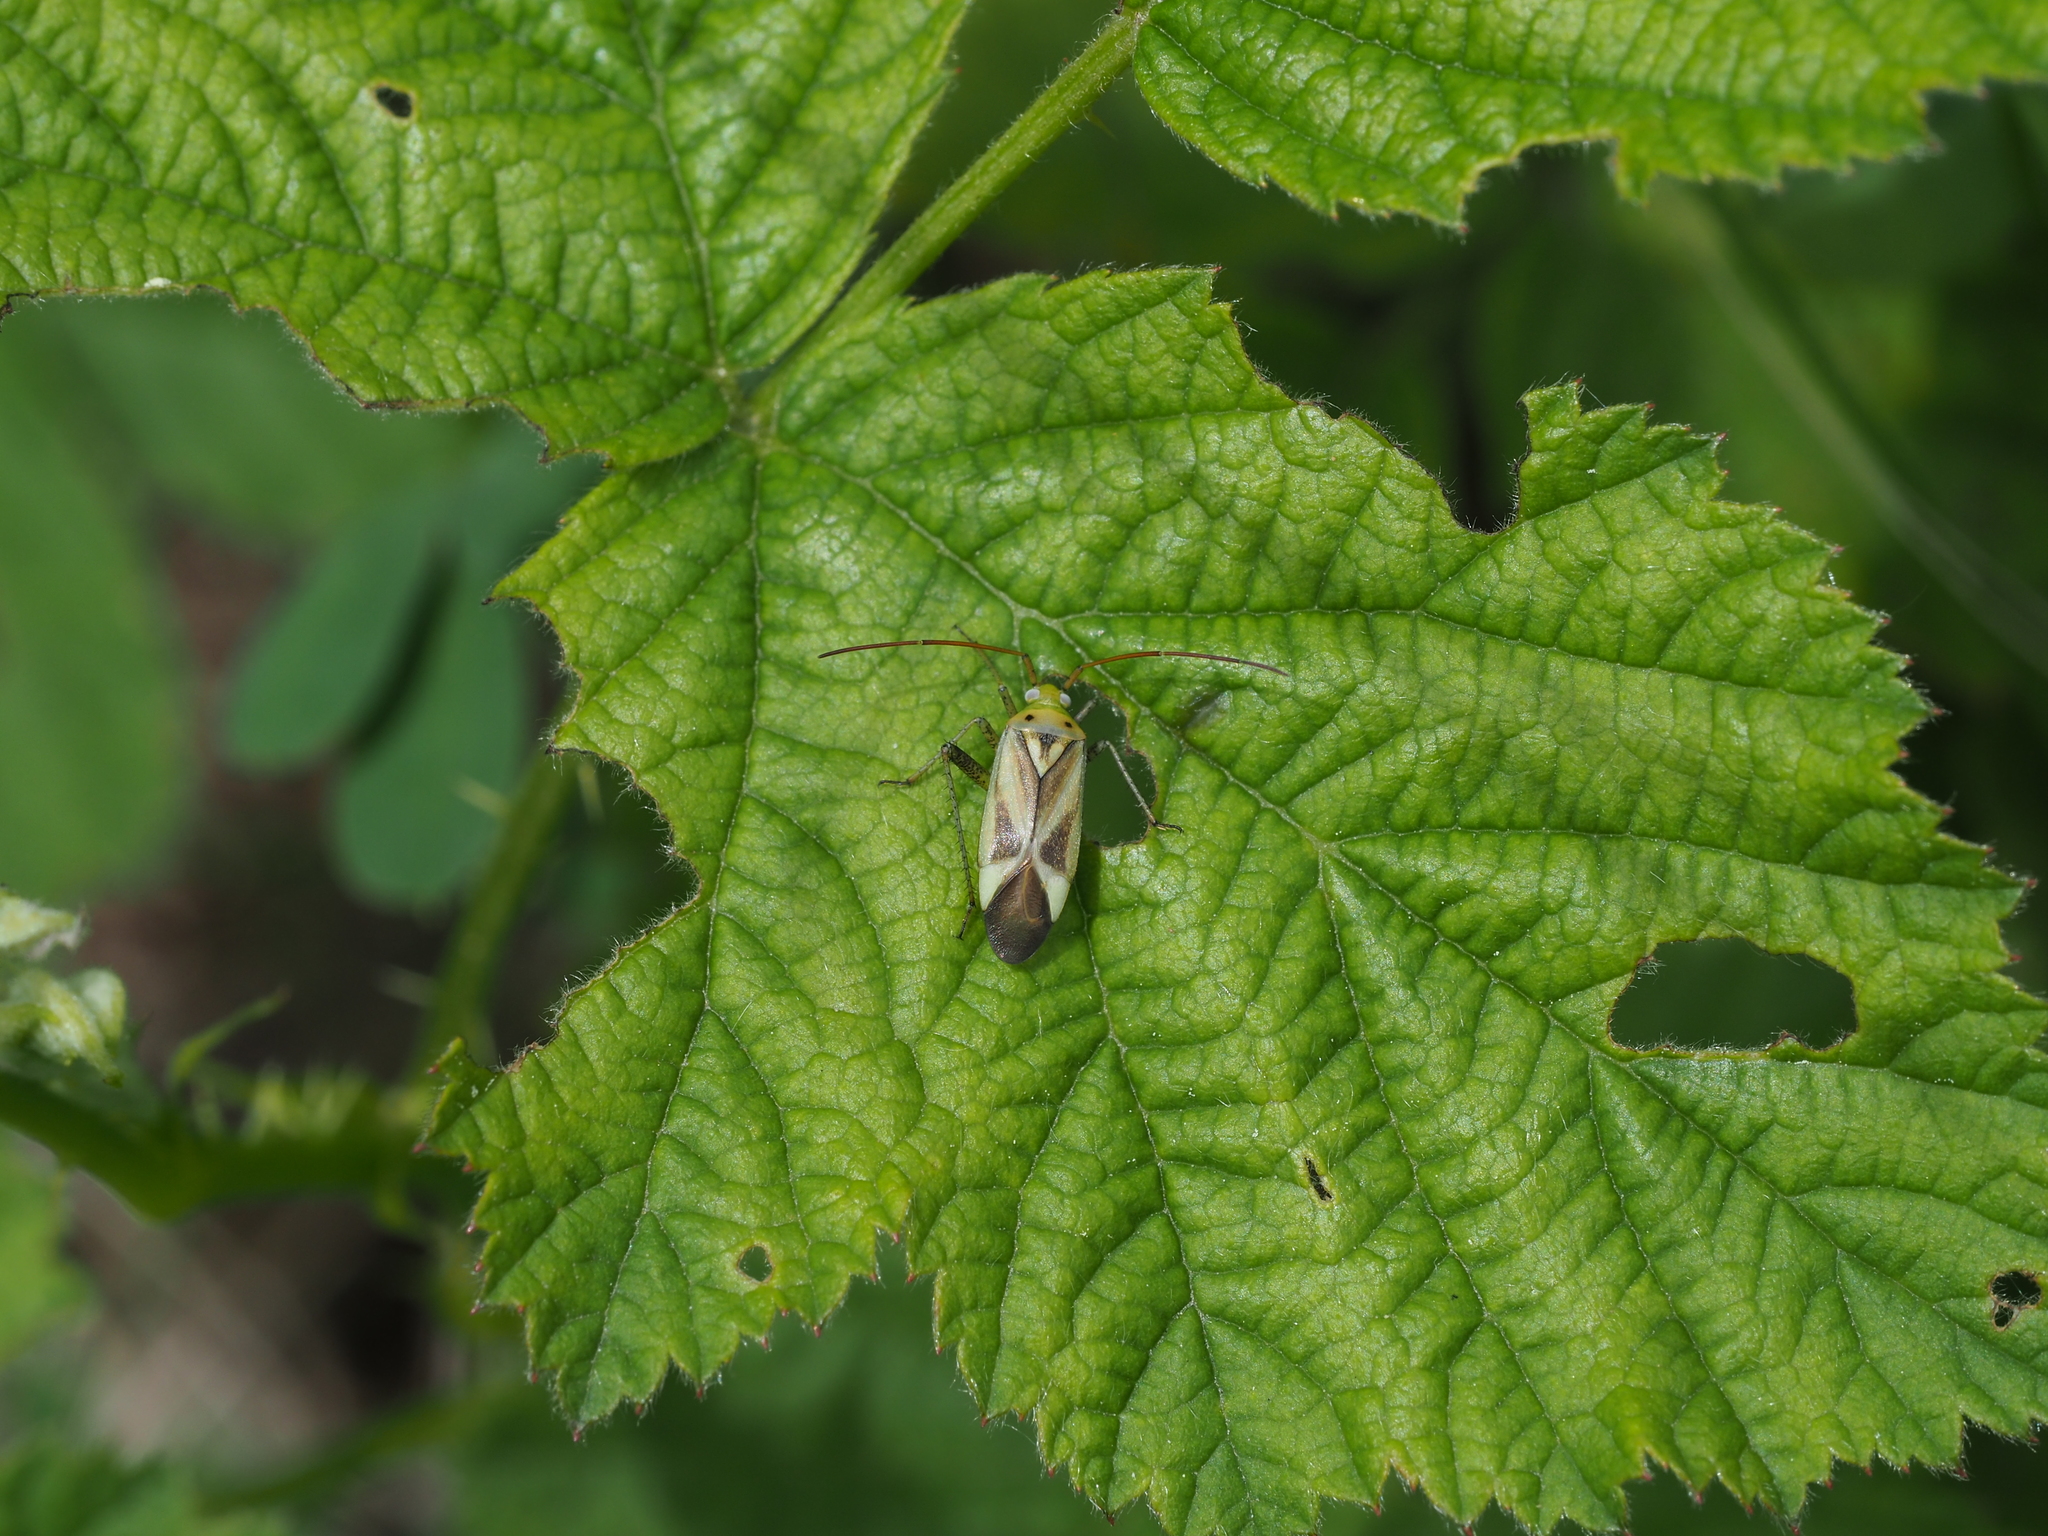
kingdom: Animalia
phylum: Arthropoda
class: Insecta
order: Hemiptera
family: Miridae
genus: Adelphocoris
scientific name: Adelphocoris lineolatus
